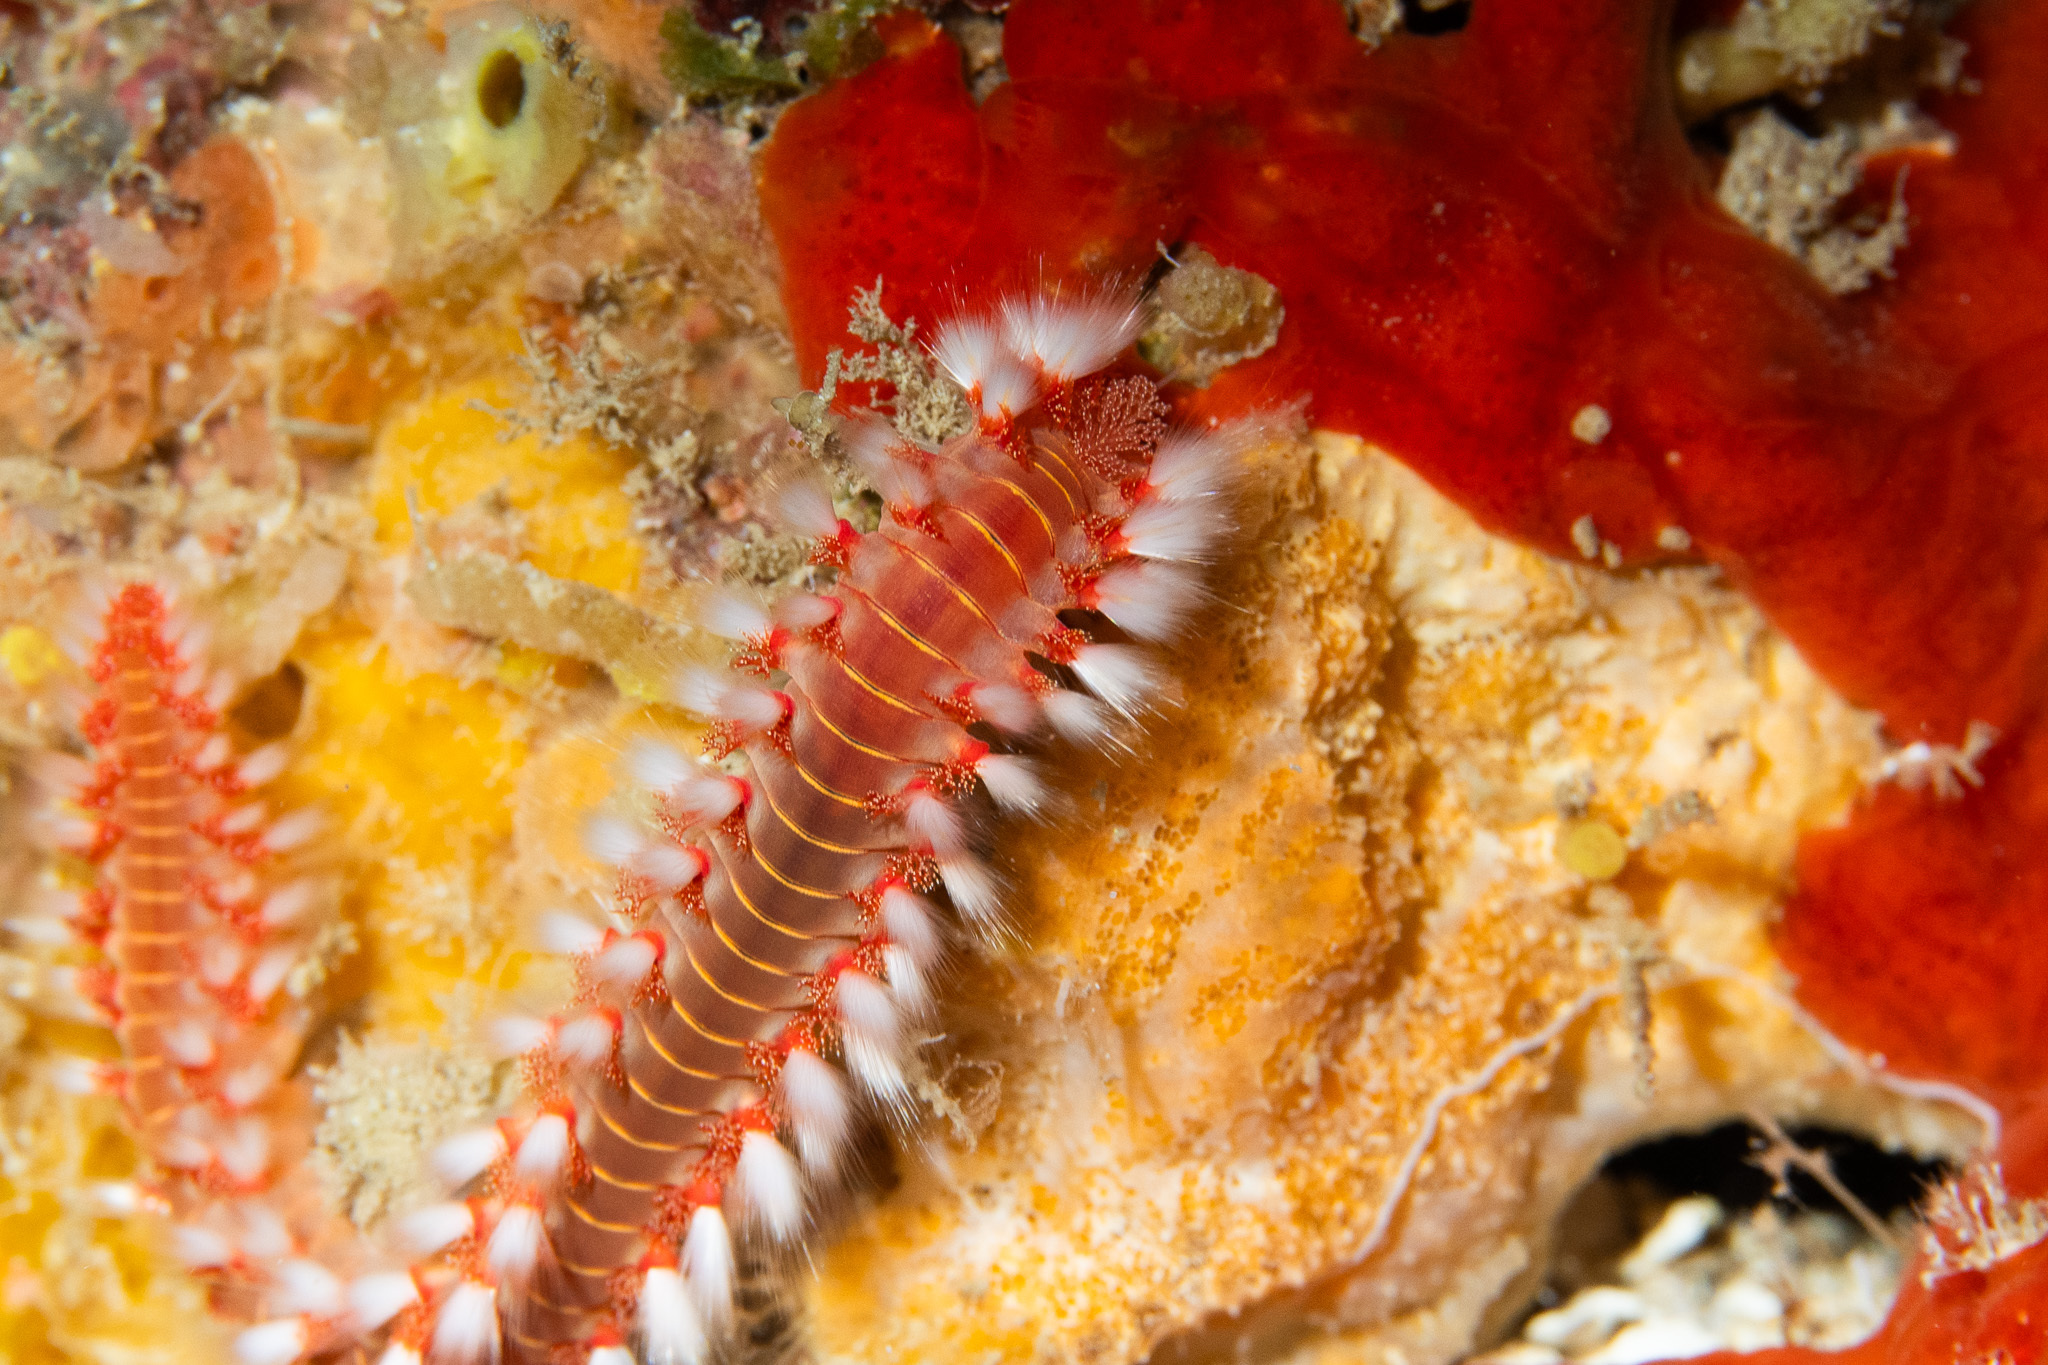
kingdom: Animalia
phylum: Annelida
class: Polychaeta
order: Amphinomida
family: Amphinomidae
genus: Hermodice
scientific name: Hermodice carunculata
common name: Bearded fireworm
